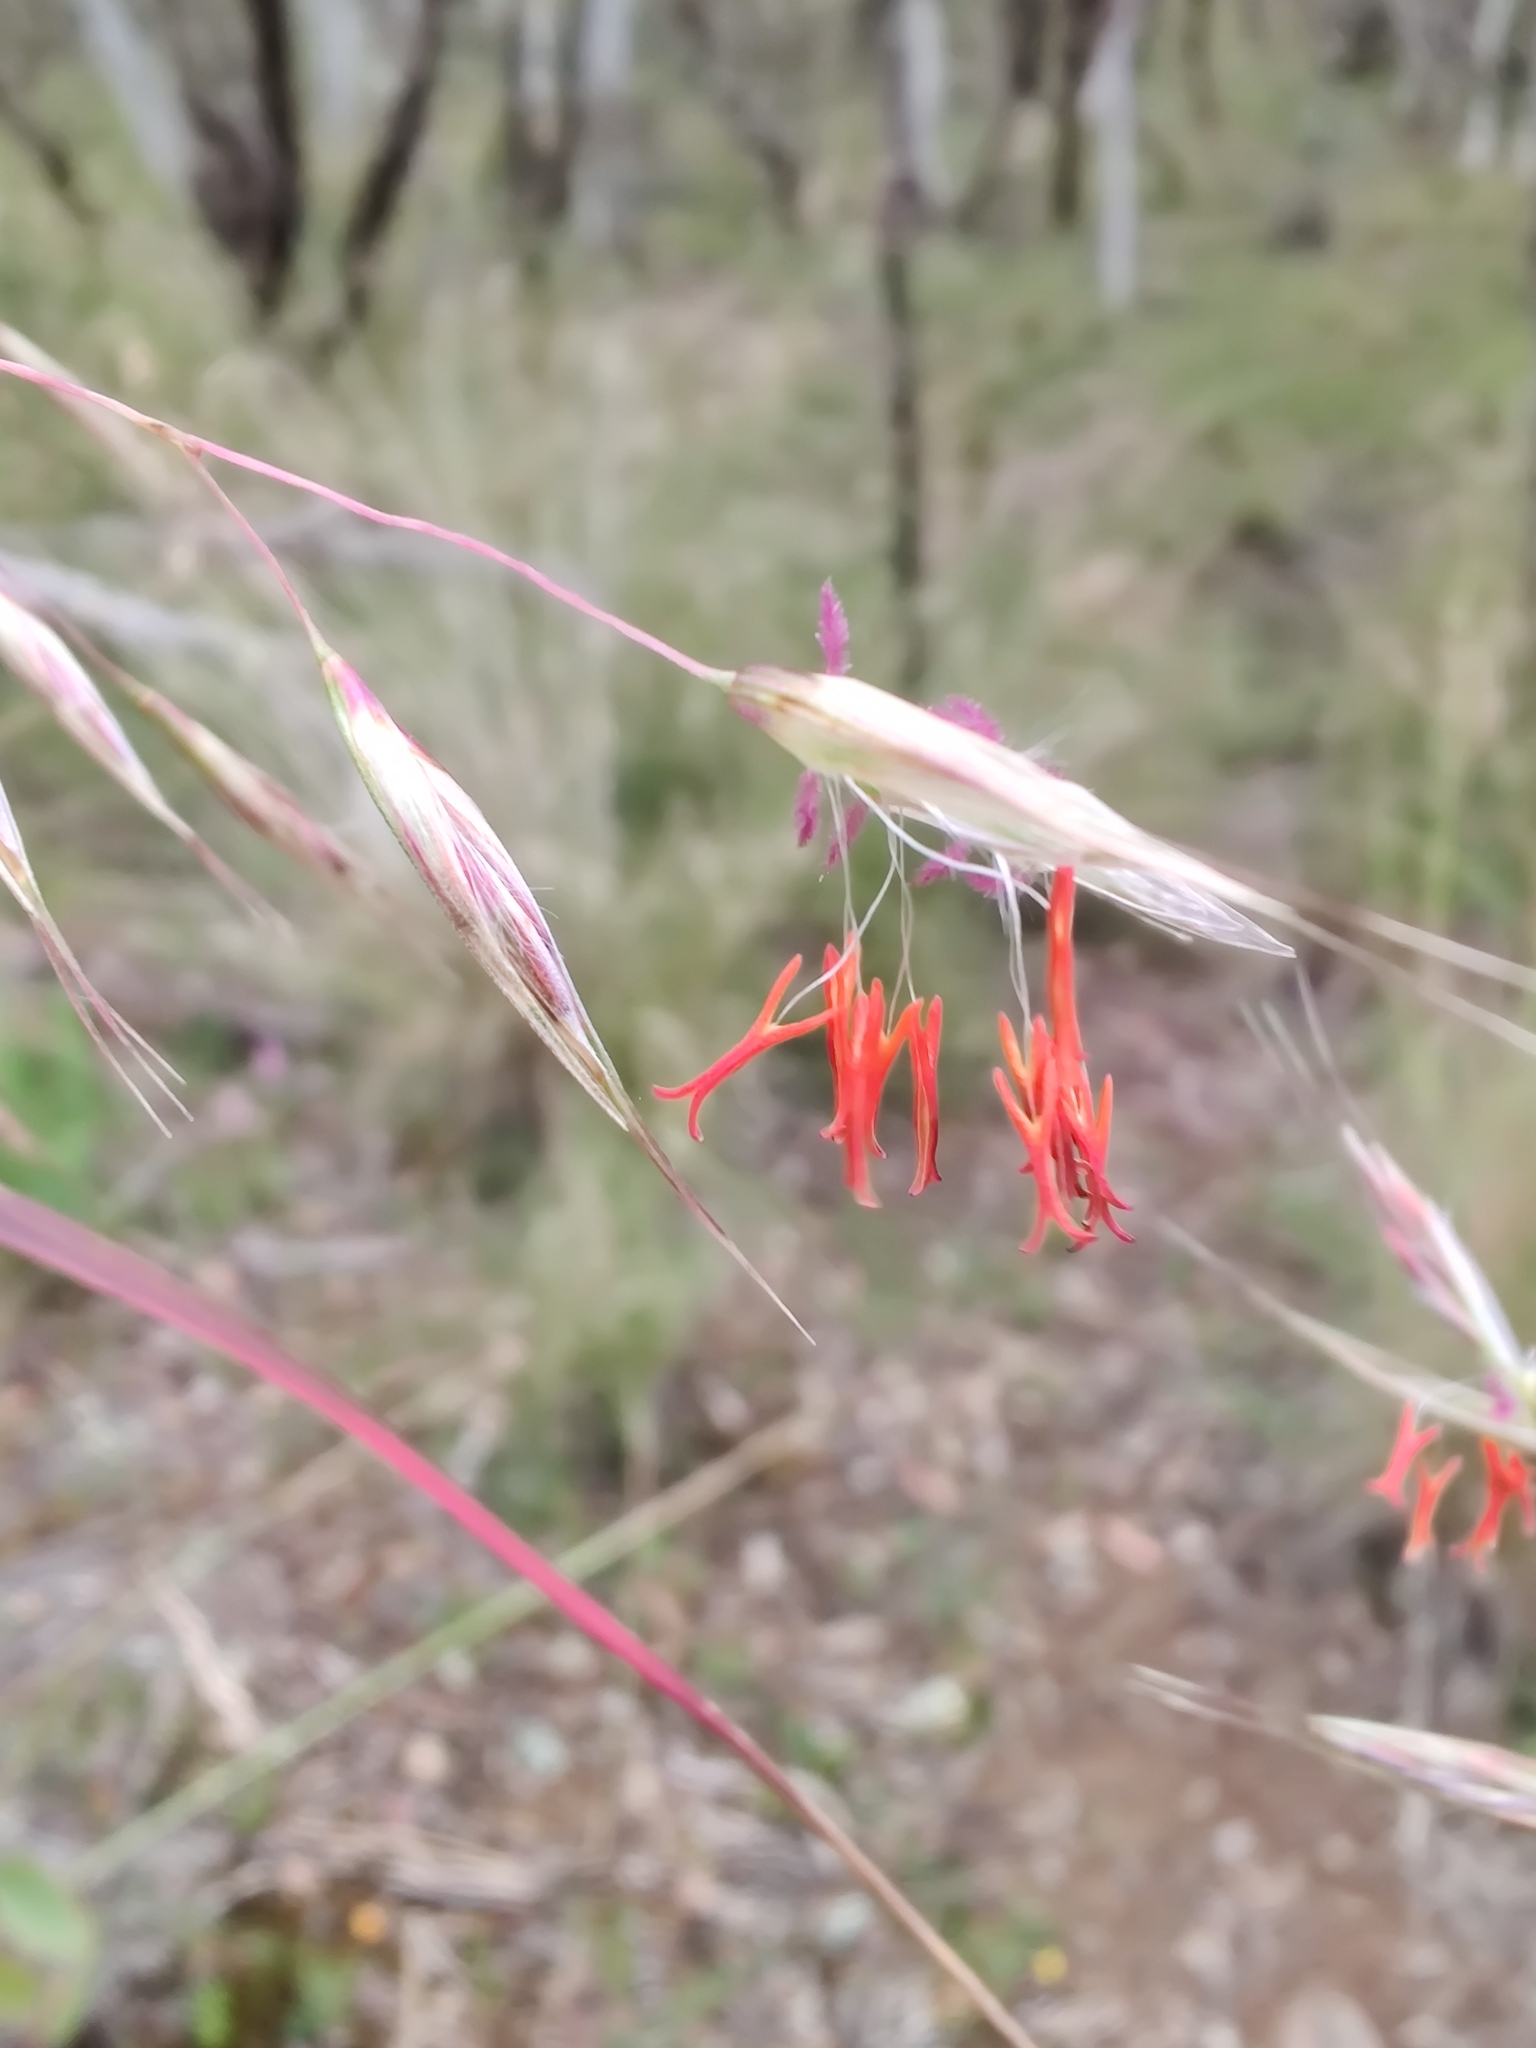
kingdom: Plantae
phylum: Tracheophyta
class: Liliopsida
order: Poales
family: Poaceae
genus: Rytidosperma
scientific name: Rytidosperma pallidum
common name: Red-anther wallaby grass
